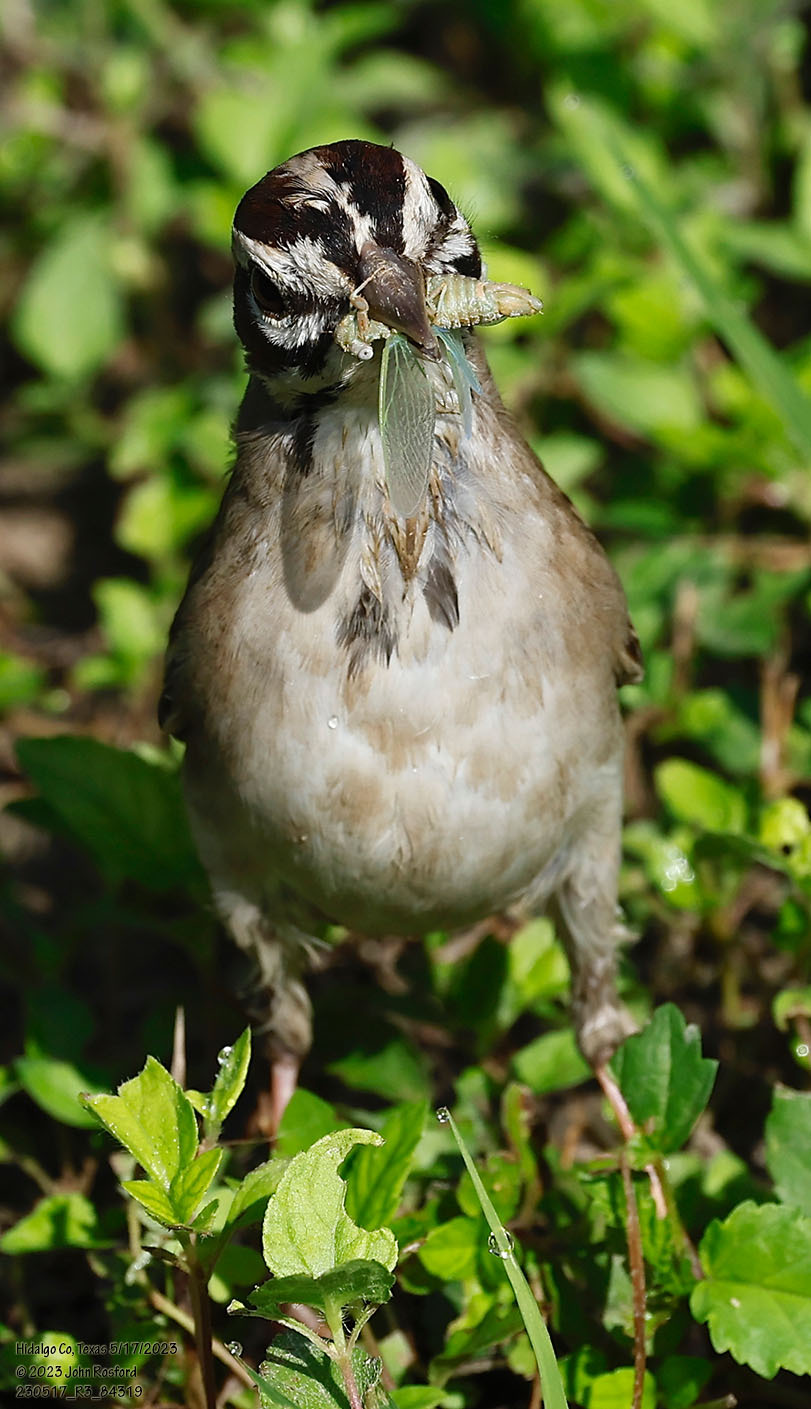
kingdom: Animalia
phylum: Chordata
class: Aves
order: Passeriformes
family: Passerellidae
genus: Chondestes
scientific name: Chondestes grammacus
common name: Lark sparrow
